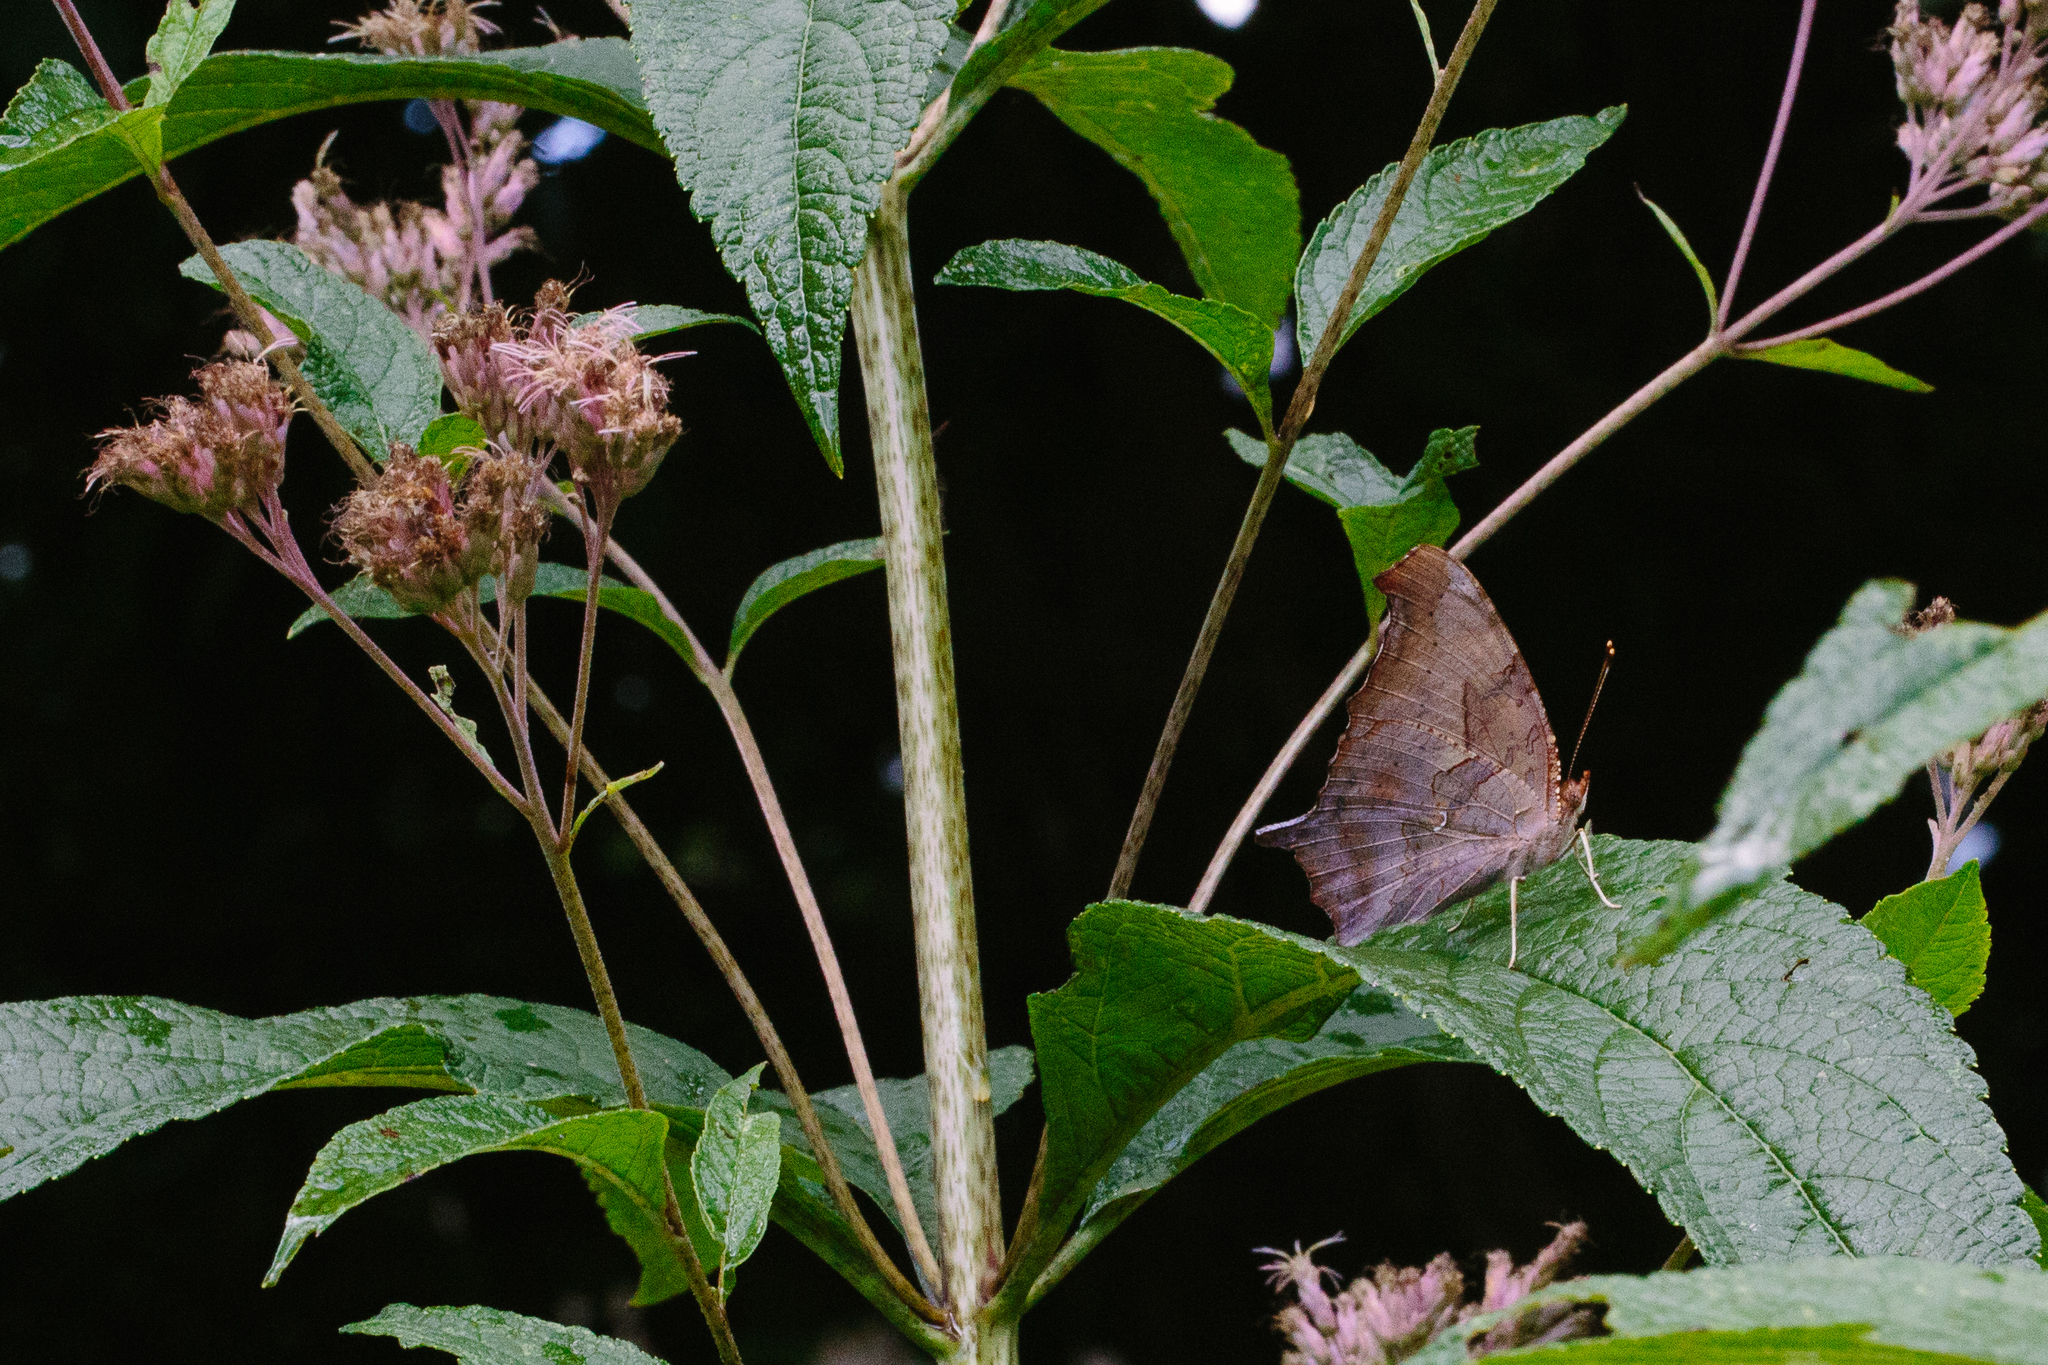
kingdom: Animalia
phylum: Arthropoda
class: Insecta
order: Lepidoptera
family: Nymphalidae
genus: Polygonia
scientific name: Polygonia interrogationis
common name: Question mark
